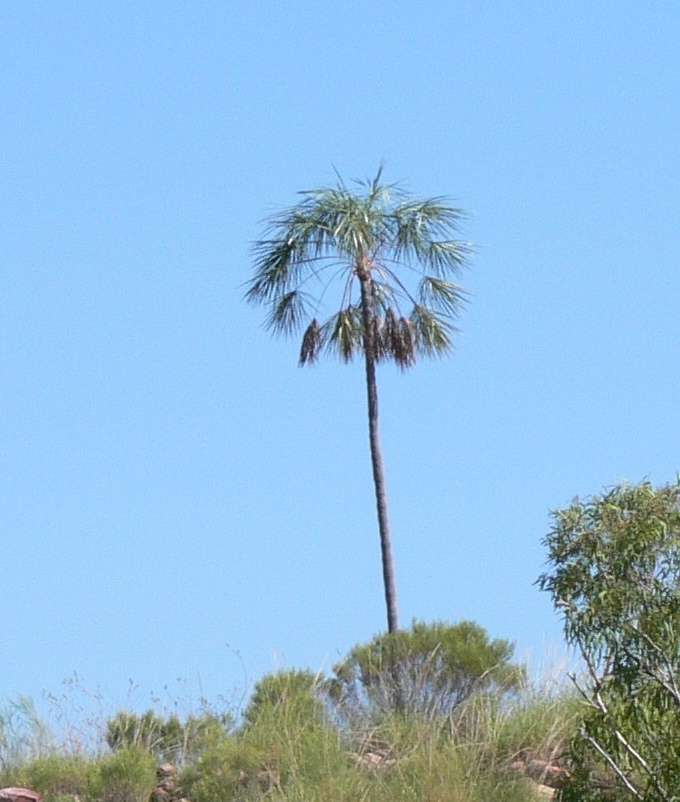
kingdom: Plantae
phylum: Tracheophyta
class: Liliopsida
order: Arecales
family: Arecaceae
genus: Livistona
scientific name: Livistona inermis
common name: Wispy fan palm
